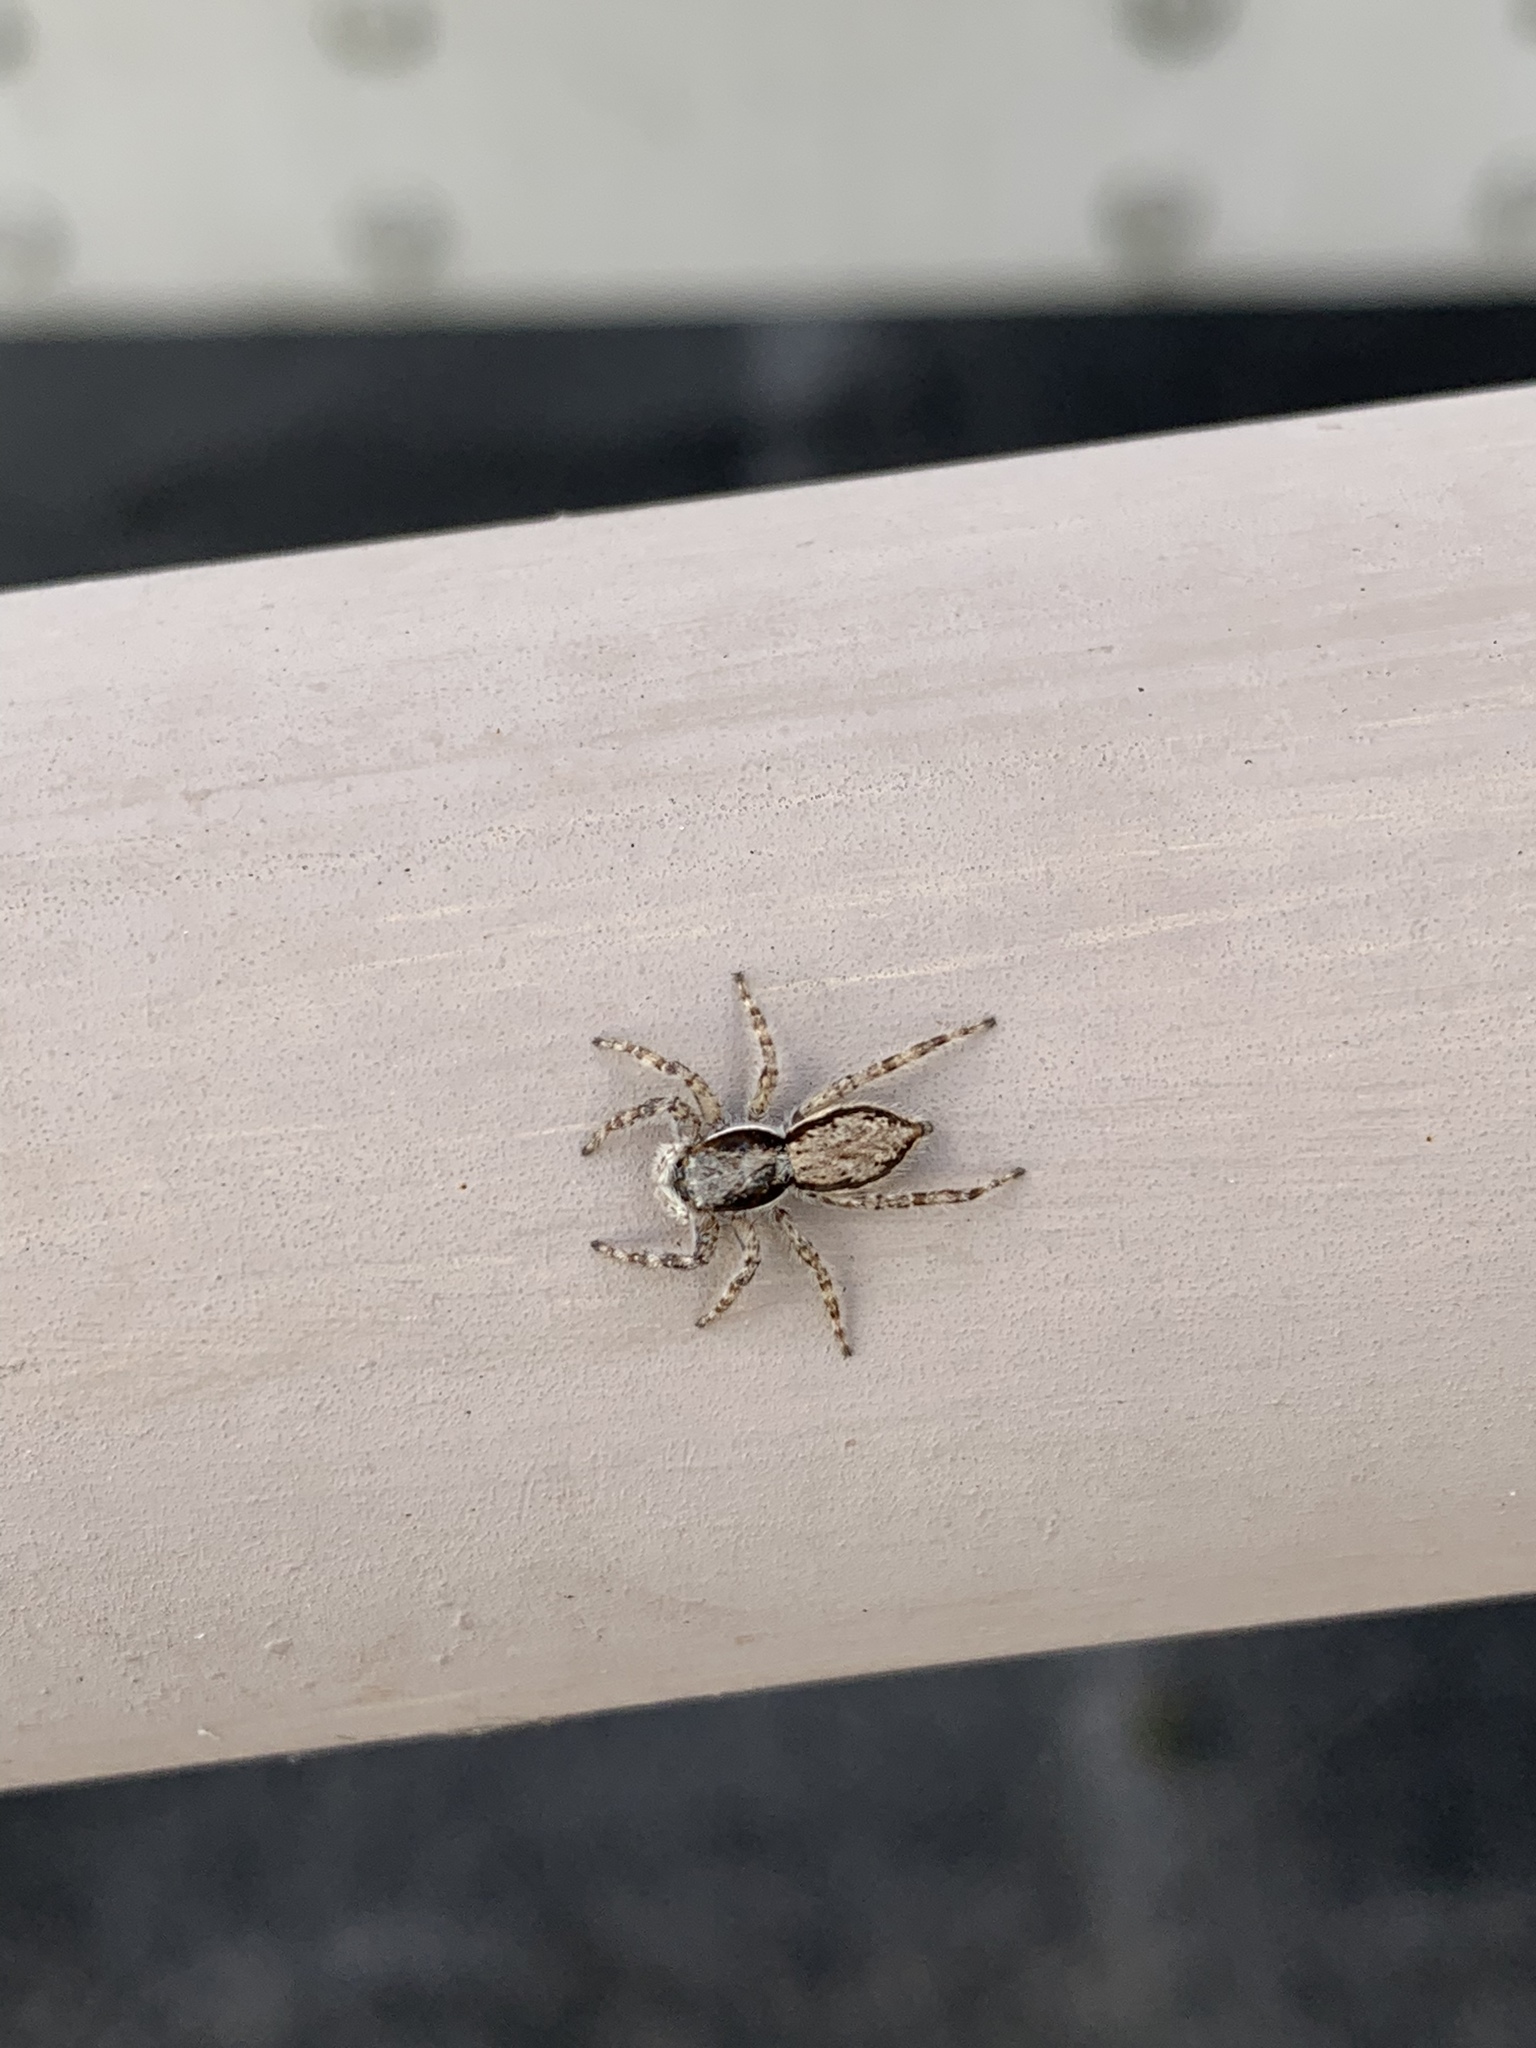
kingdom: Animalia
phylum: Arthropoda
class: Arachnida
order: Araneae
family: Salticidae
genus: Menemerus
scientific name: Menemerus bivittatus
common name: Gray wall jumper
